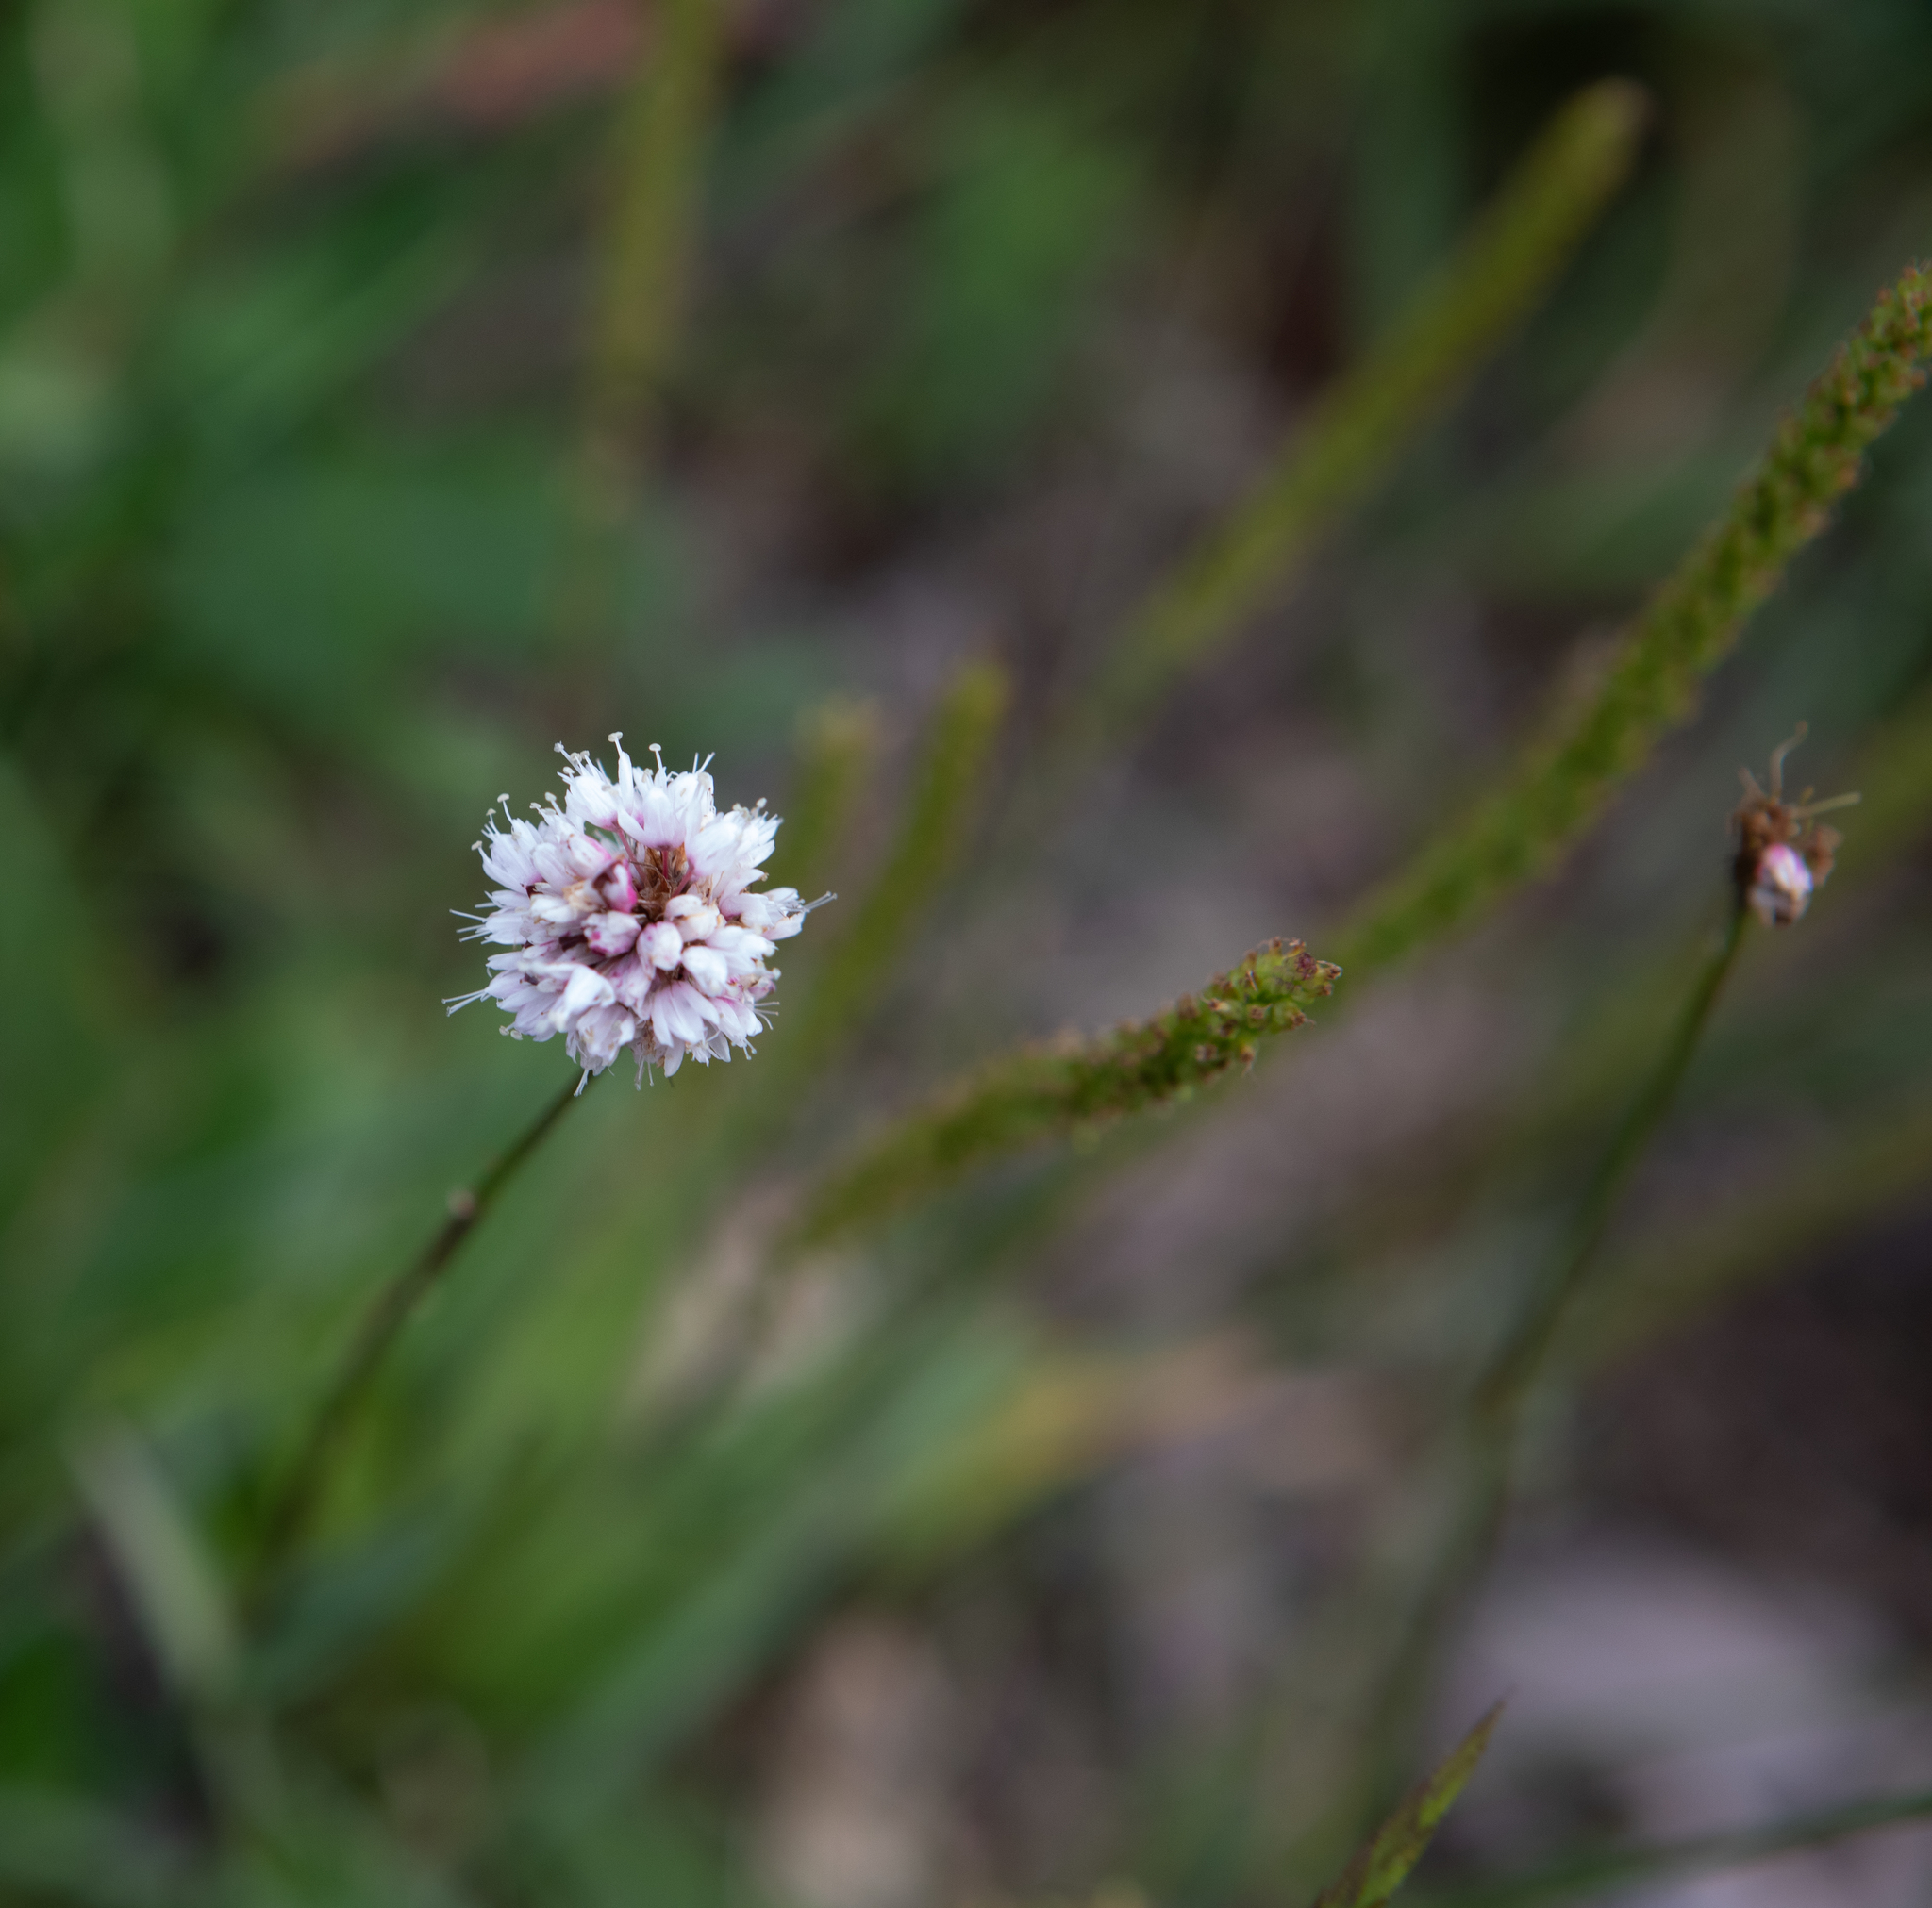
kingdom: Plantae
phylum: Tracheophyta
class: Magnoliopsida
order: Caryophyllales
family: Polygonaceae
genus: Bistorta
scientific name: Bistorta elliptica
